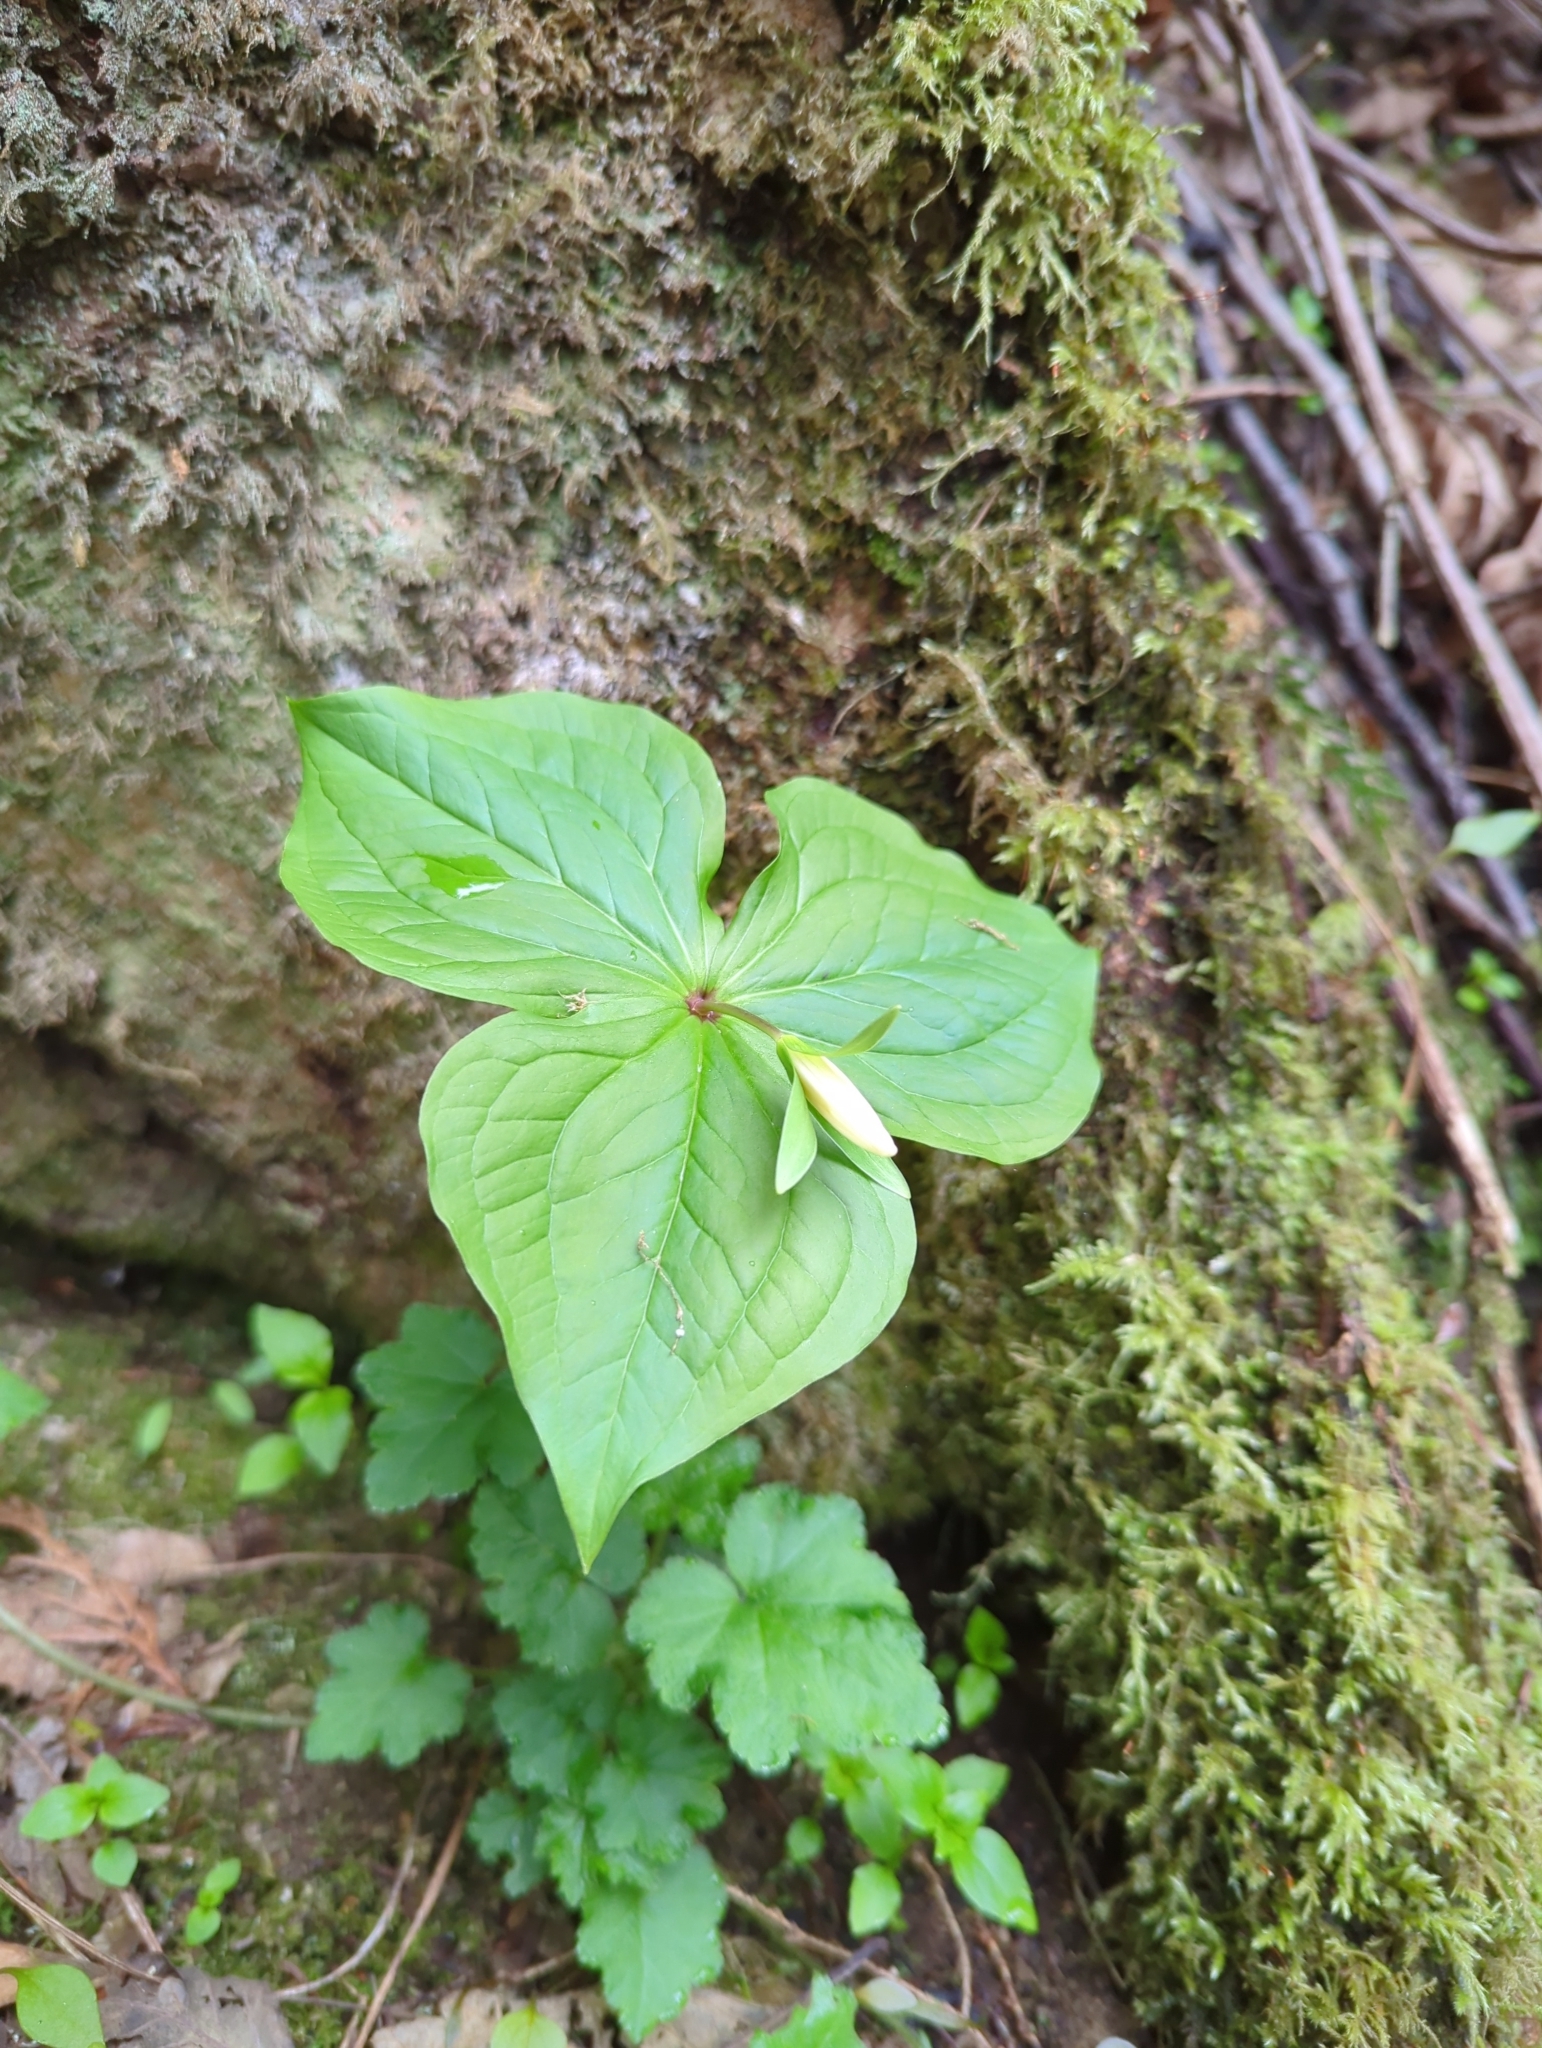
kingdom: Plantae
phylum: Tracheophyta
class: Liliopsida
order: Liliales
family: Melanthiaceae
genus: Trillium
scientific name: Trillium ovatum
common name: Pacific trillium
